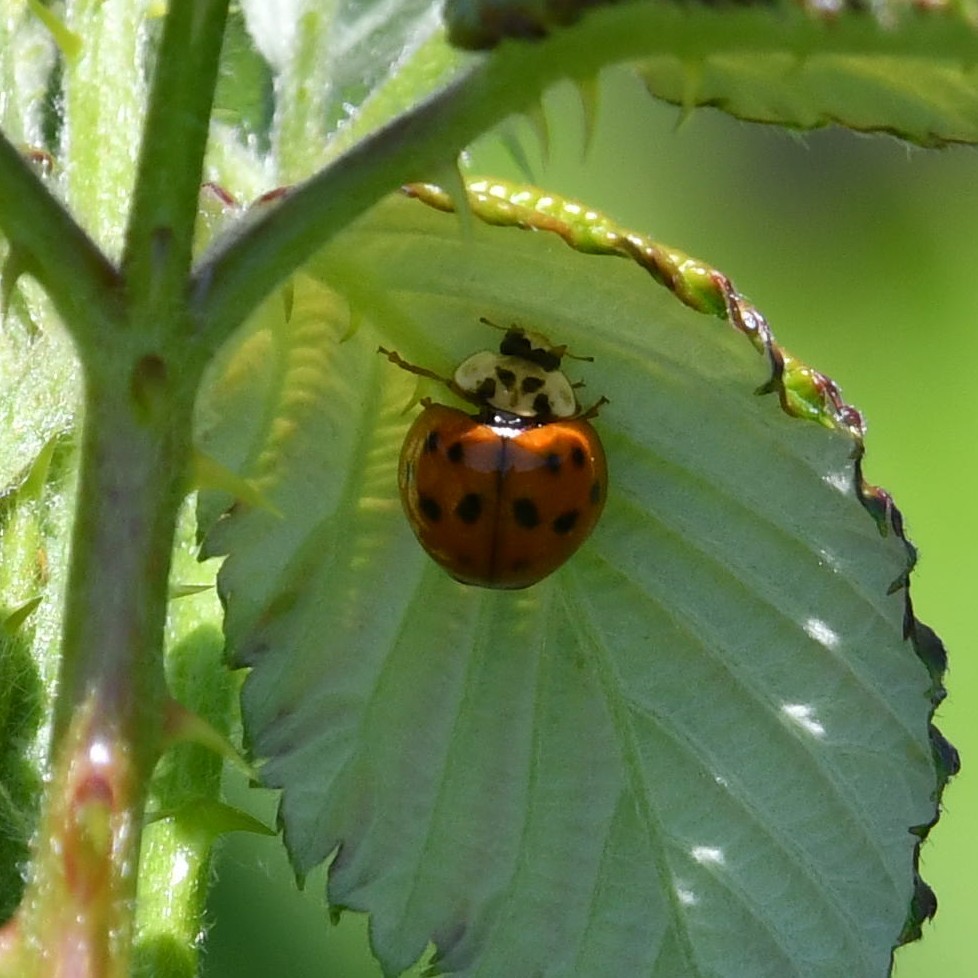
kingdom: Animalia
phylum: Arthropoda
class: Insecta
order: Coleoptera
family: Coccinellidae
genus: Harmonia
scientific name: Harmonia axyridis
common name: Harlequin ladybird
